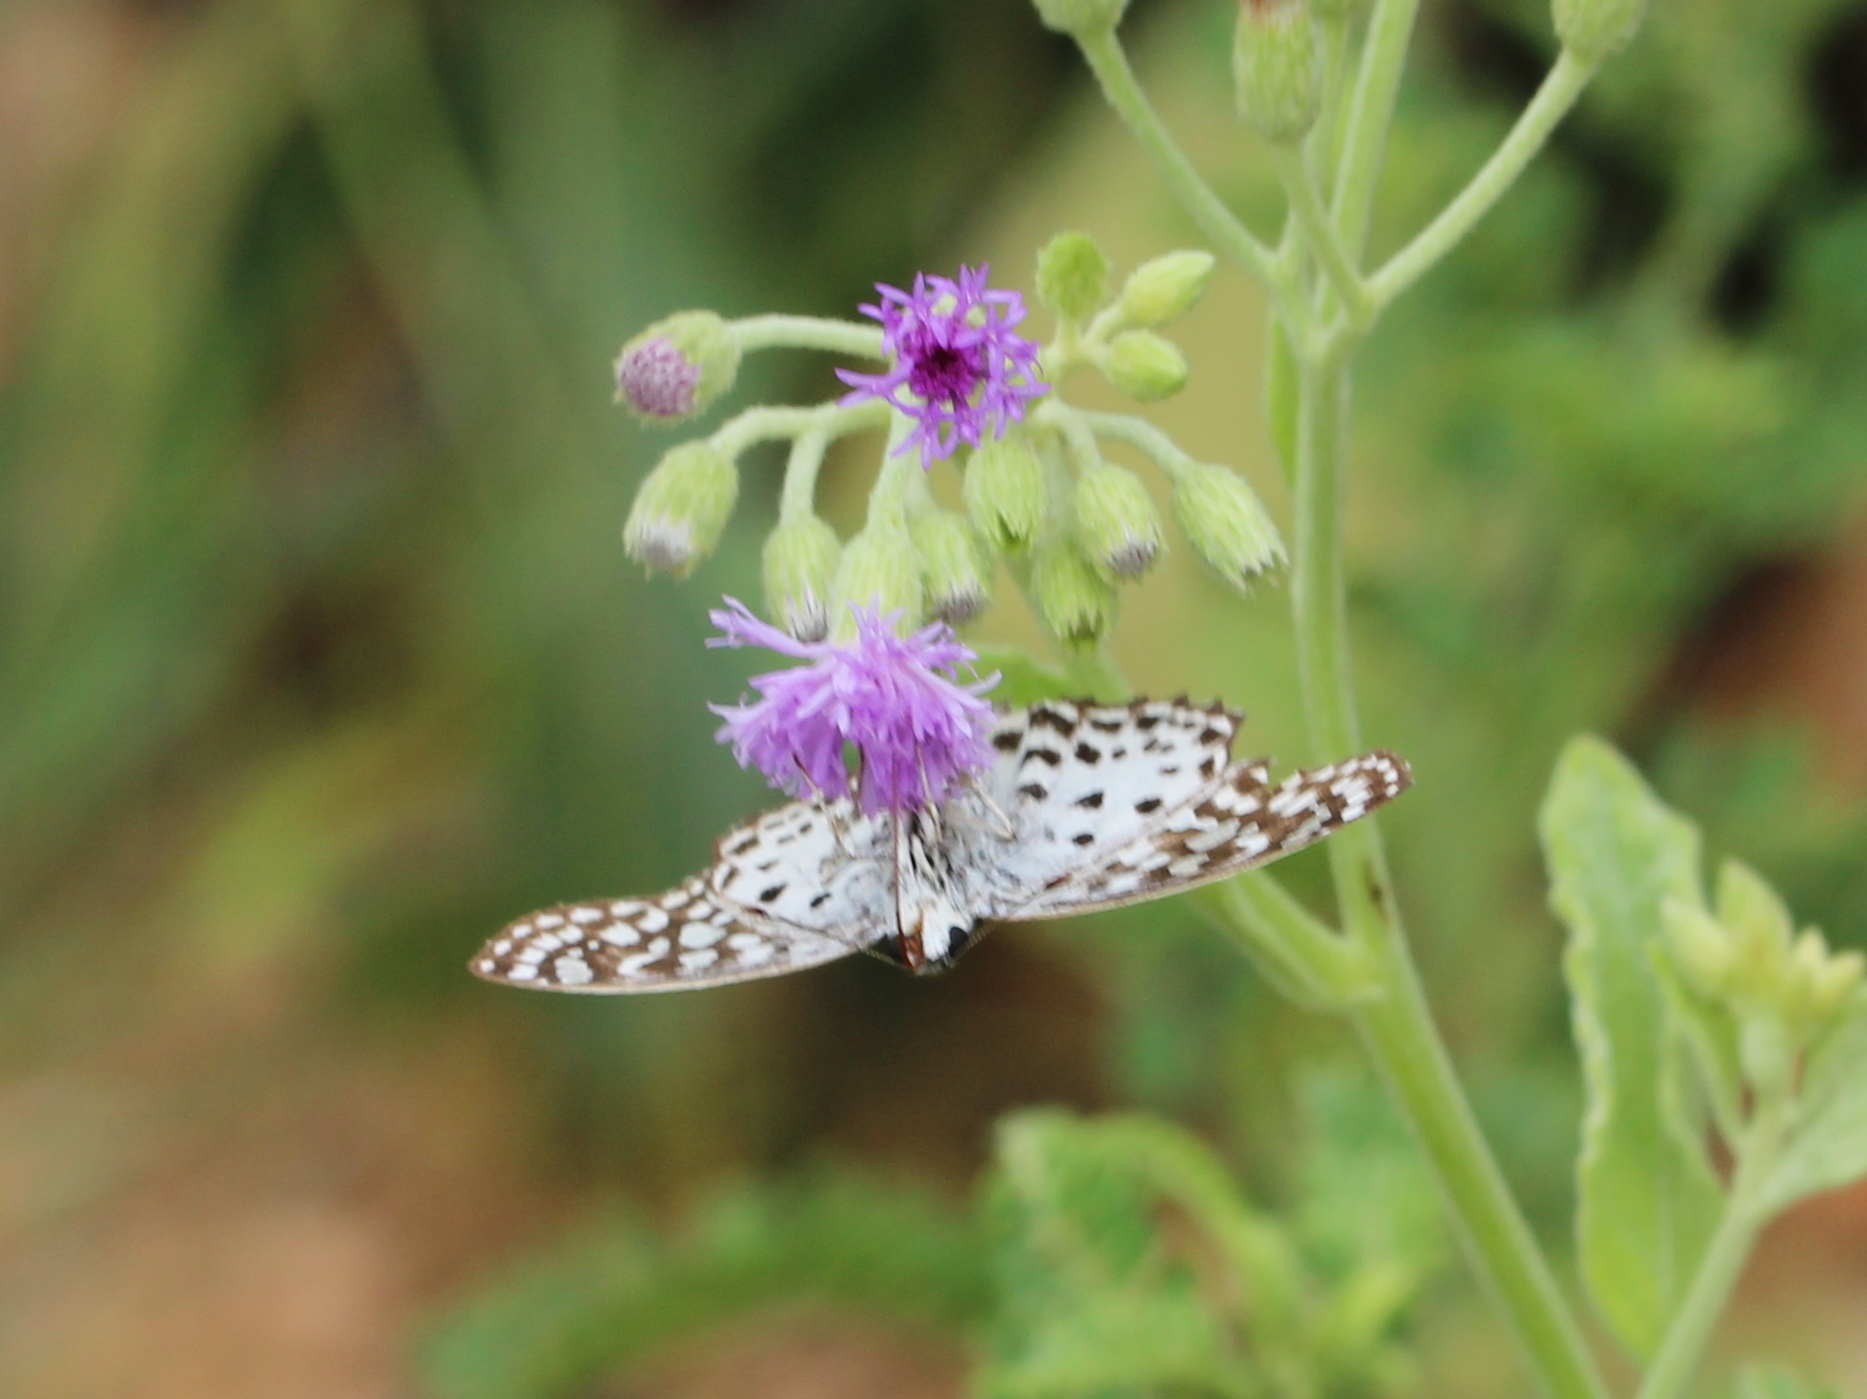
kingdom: Animalia
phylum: Arthropoda
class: Insecta
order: Lepidoptera
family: Hesperiidae
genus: Caprona
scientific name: Caprona agama
